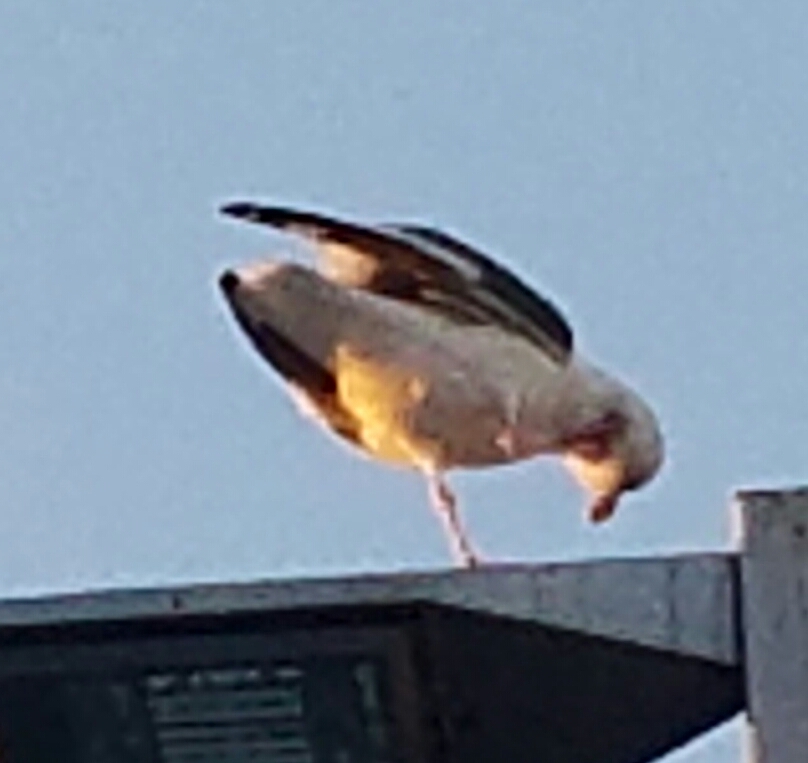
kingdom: Animalia
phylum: Chordata
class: Aves
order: Charadriiformes
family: Laridae
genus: Larus
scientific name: Larus occidentalis
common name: Western gull
